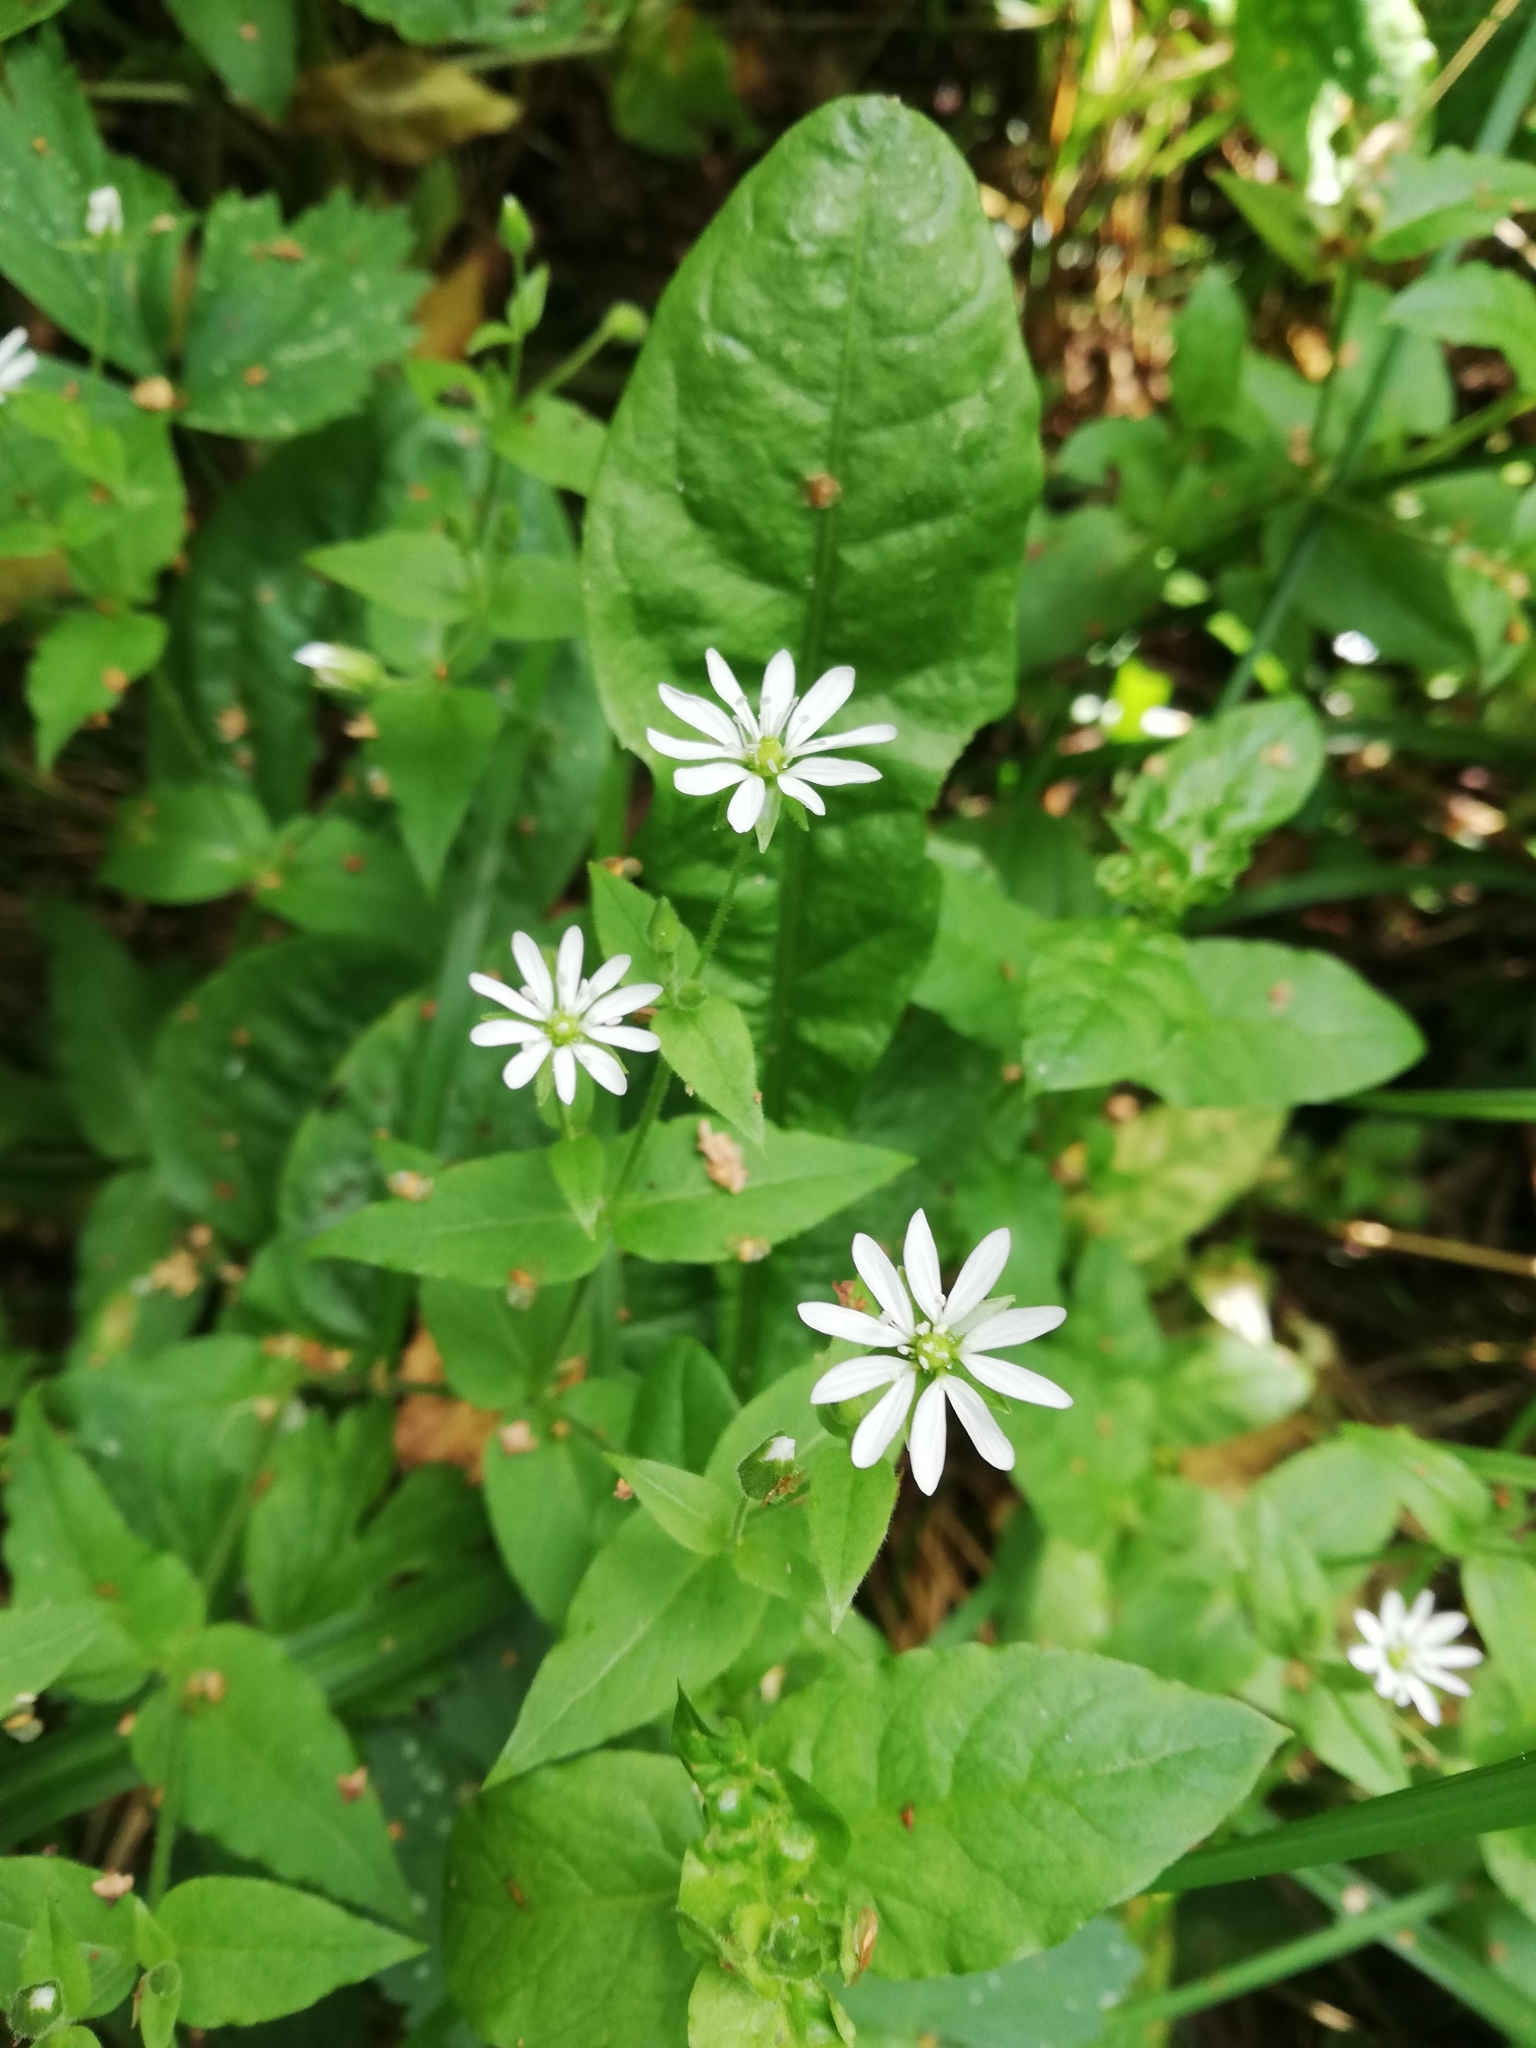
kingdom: Plantae
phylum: Tracheophyta
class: Magnoliopsida
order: Caryophyllales
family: Caryophyllaceae
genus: Stellaria
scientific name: Stellaria aquatica
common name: Water chickweed
